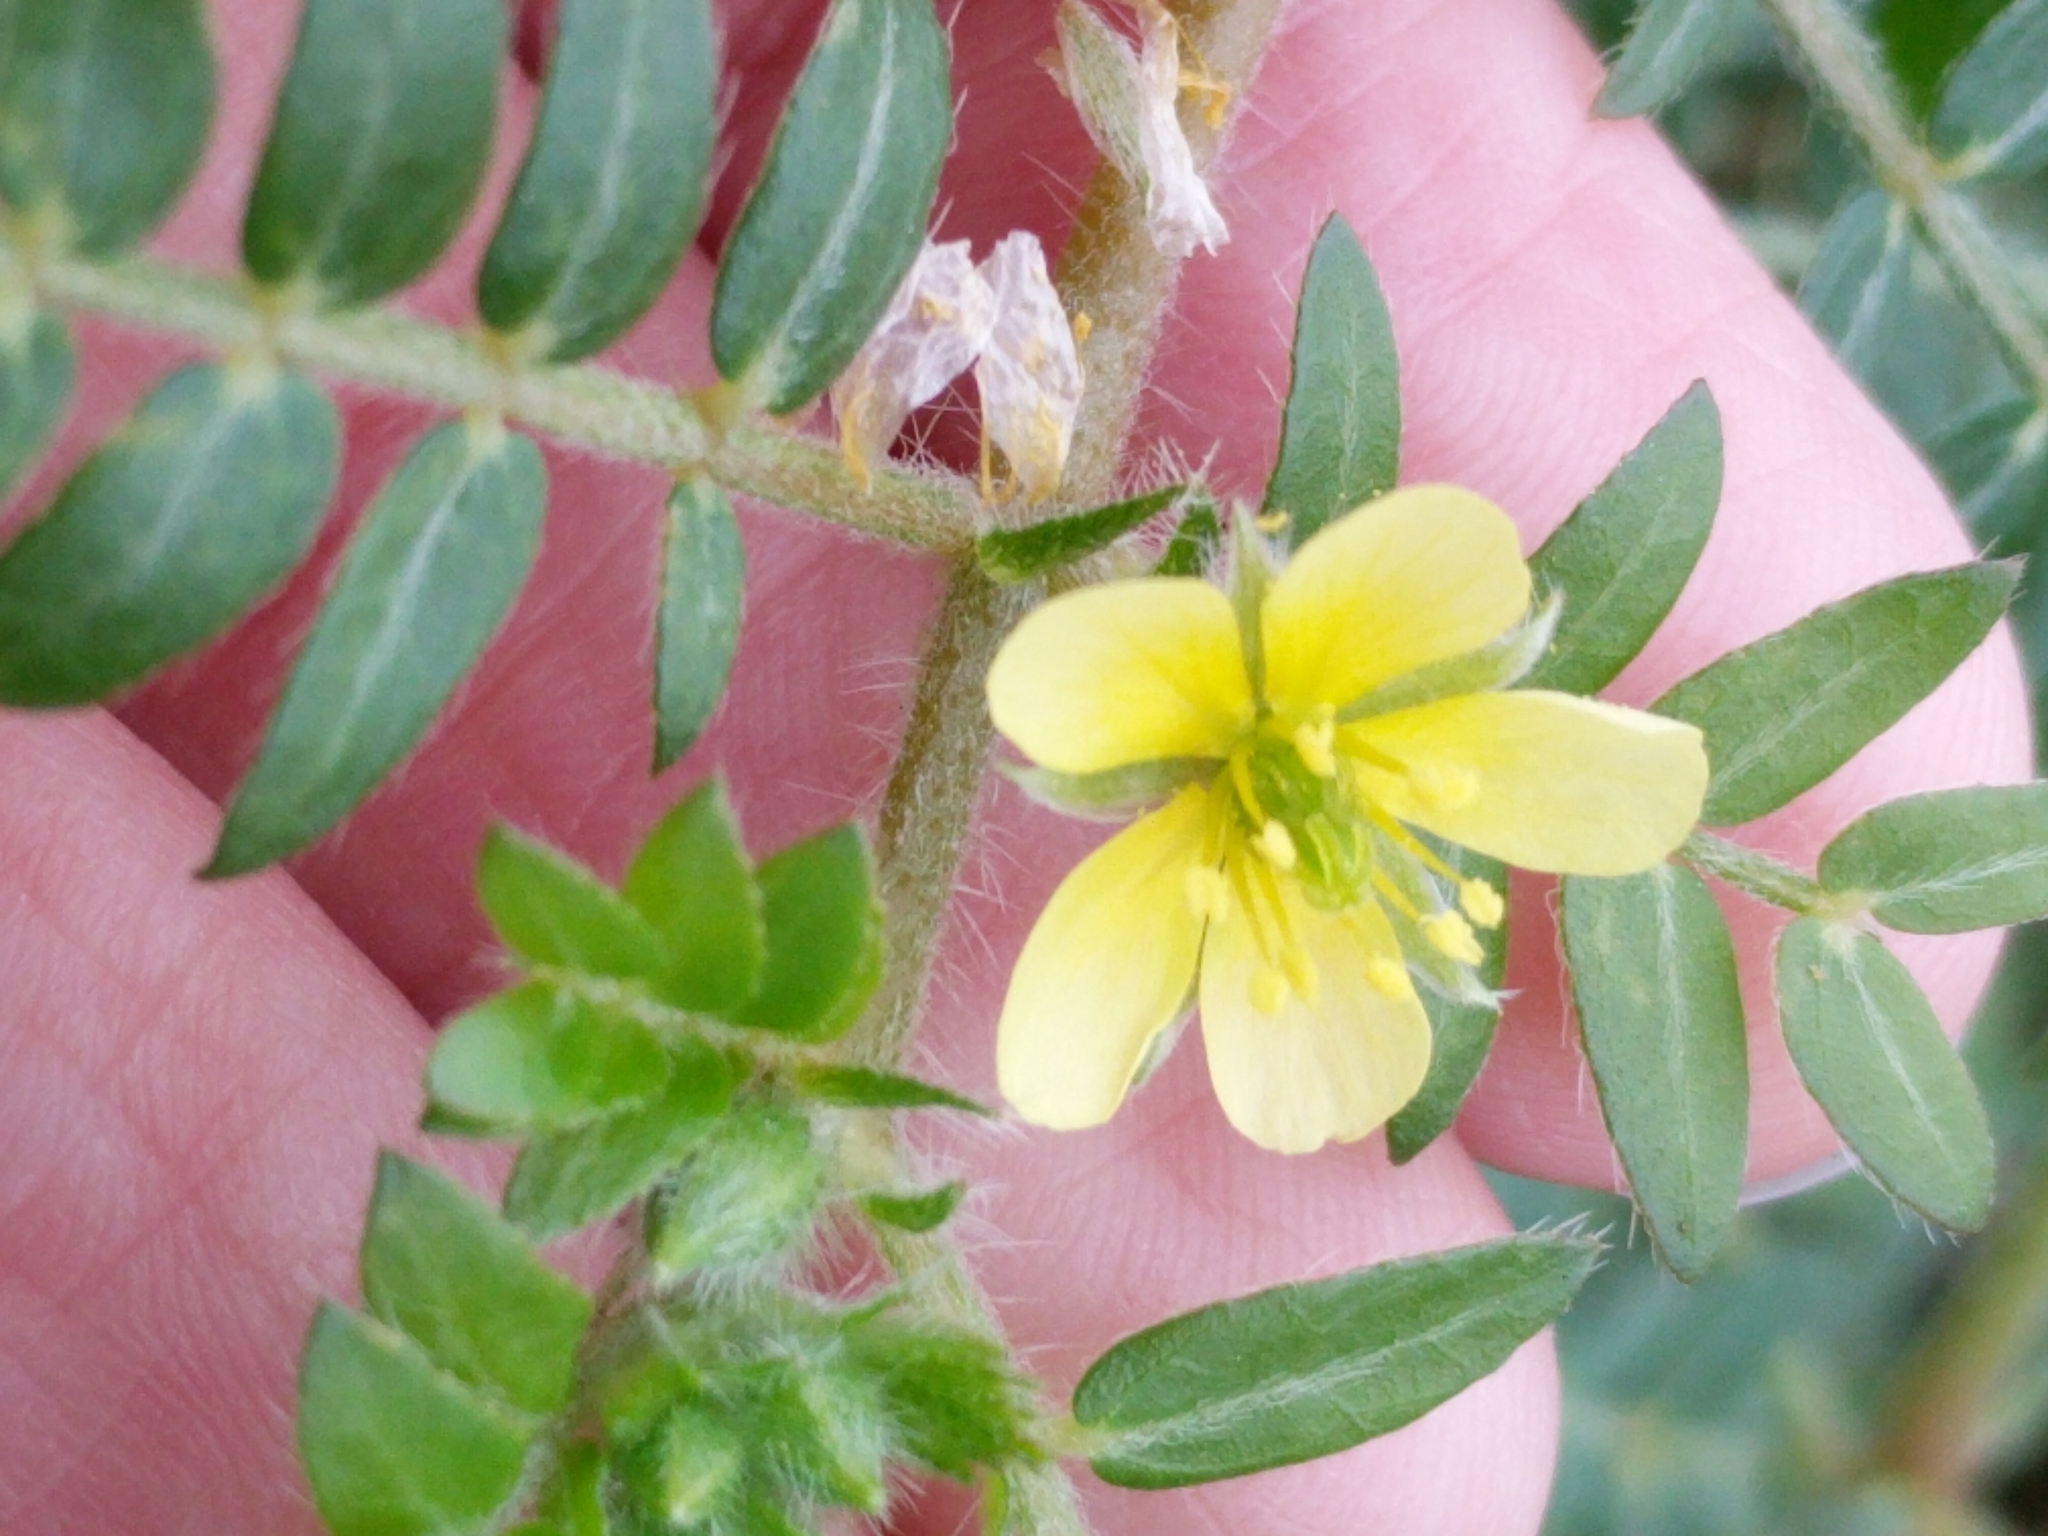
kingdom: Plantae
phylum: Tracheophyta
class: Magnoliopsida
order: Zygophyllales
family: Zygophyllaceae
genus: Tribulus
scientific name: Tribulus terrestris
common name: Puncturevine
